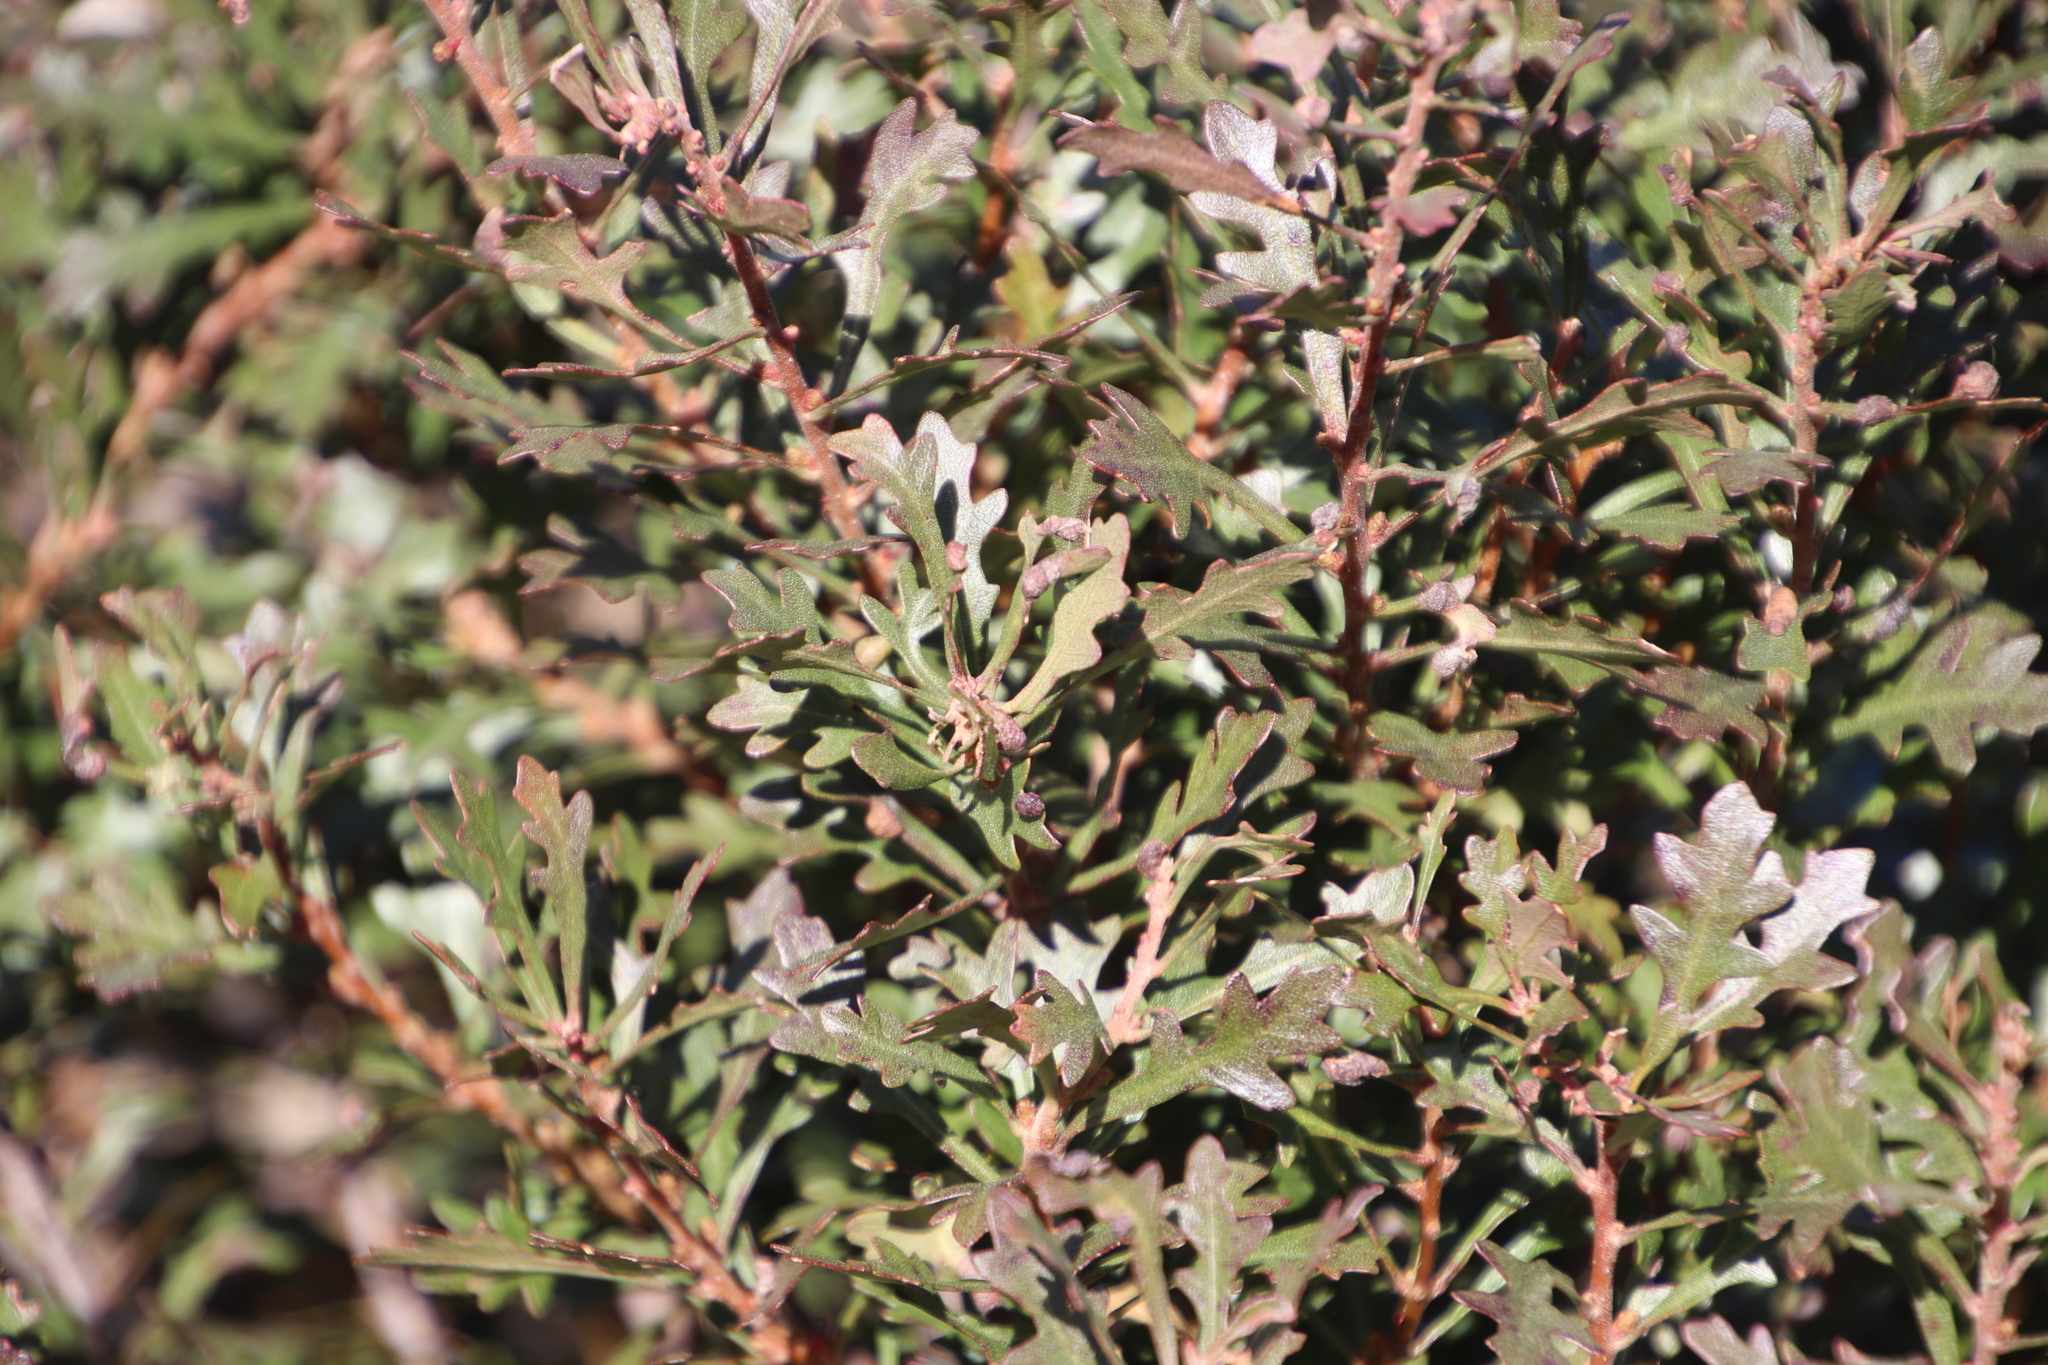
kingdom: Plantae
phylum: Tracheophyta
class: Magnoliopsida
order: Fagales
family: Myricaceae
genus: Morella
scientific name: Morella quercifolia
